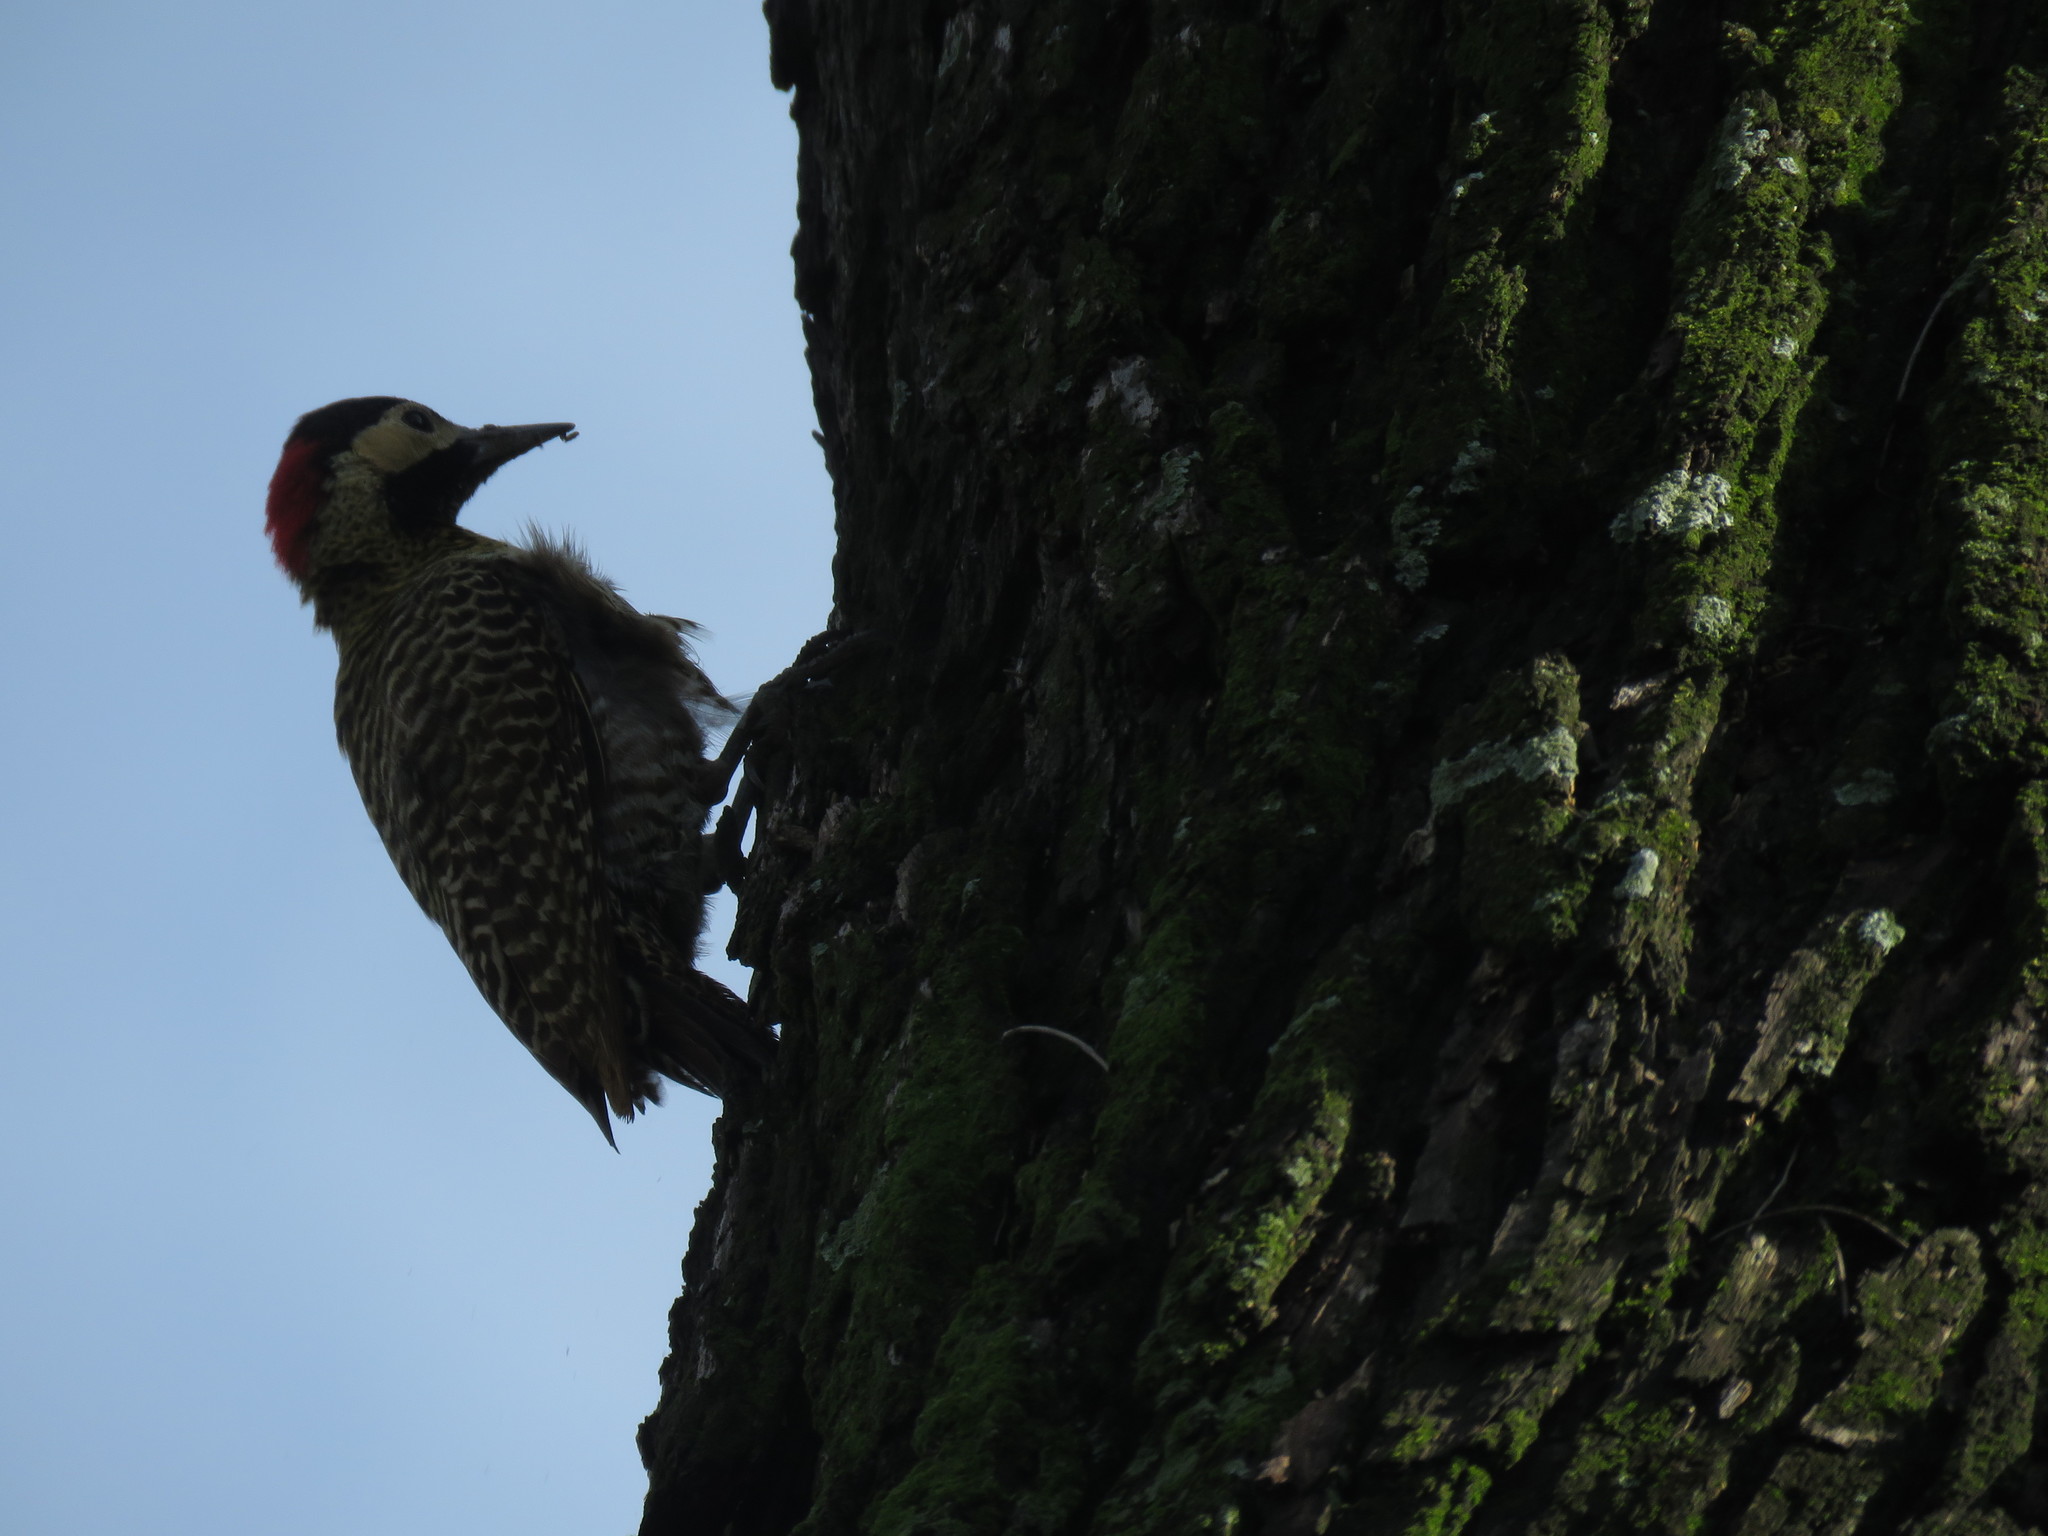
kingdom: Animalia
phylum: Chordata
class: Aves
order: Piciformes
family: Picidae
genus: Colaptes
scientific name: Colaptes melanochloros
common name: Green-barred woodpecker
